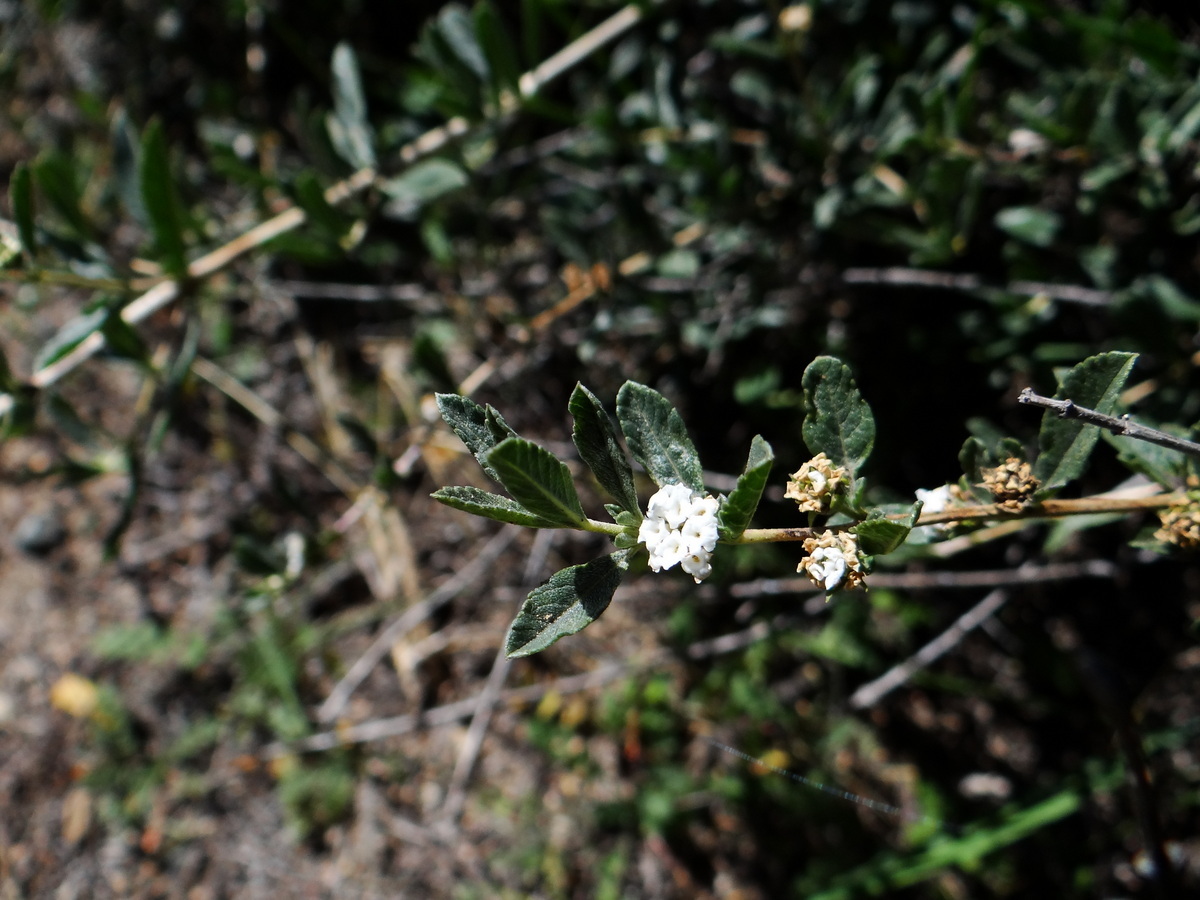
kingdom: Plantae
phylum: Tracheophyta
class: Magnoliopsida
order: Lamiales
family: Verbenaceae
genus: Lippia
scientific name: Lippia turbinata
